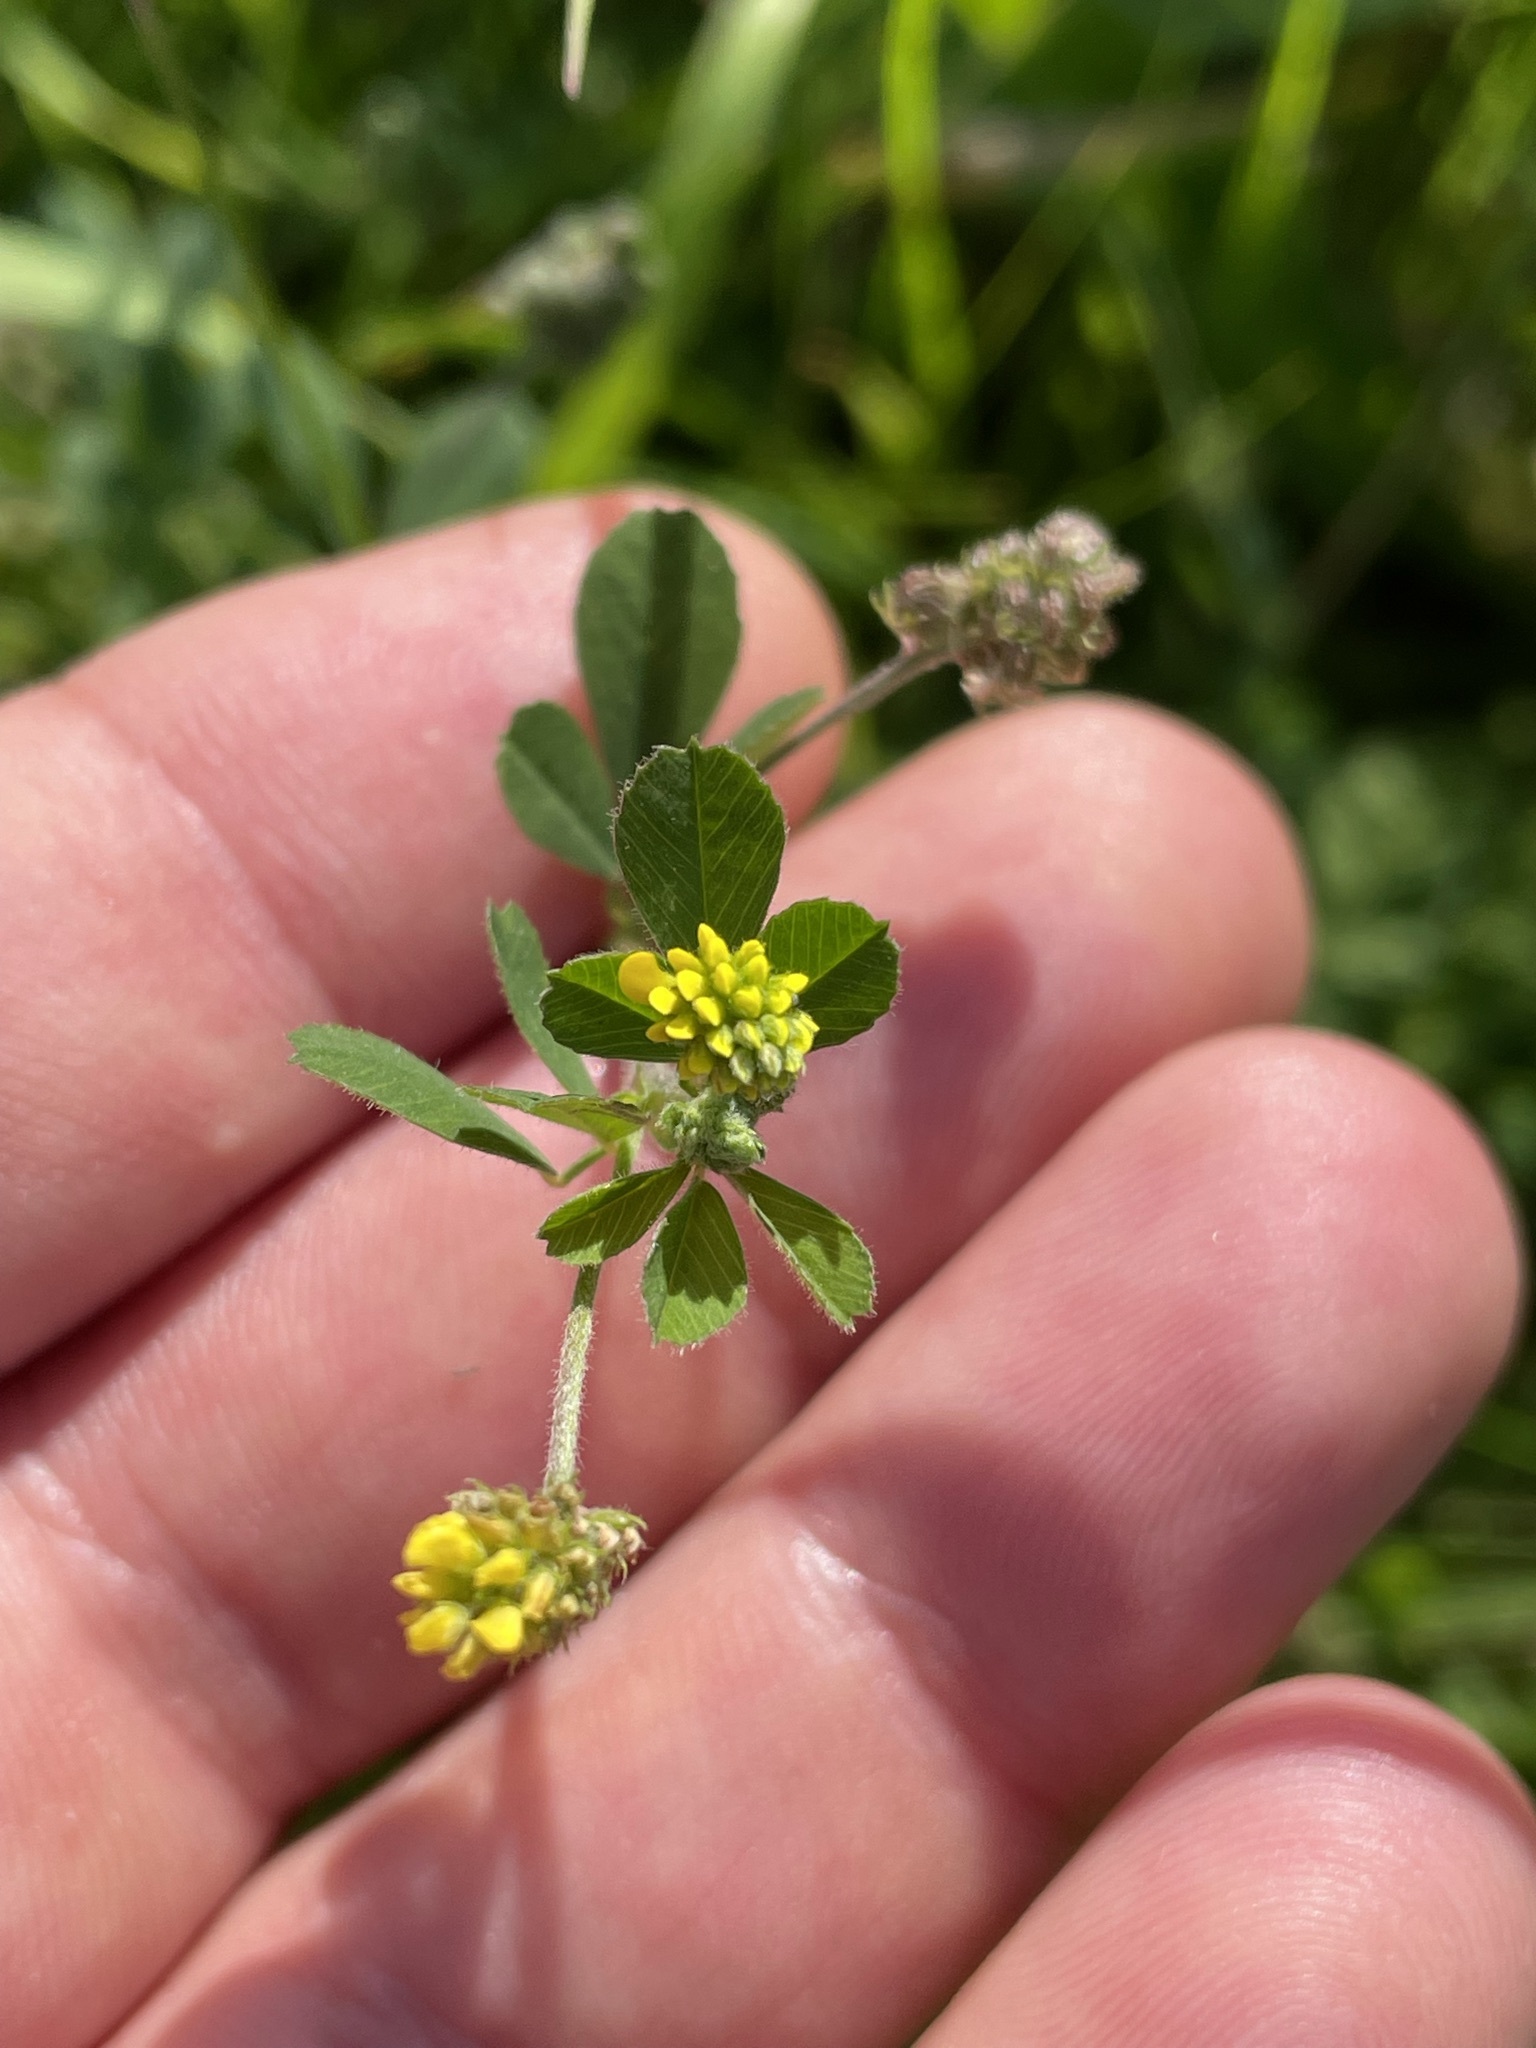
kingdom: Plantae
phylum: Tracheophyta
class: Magnoliopsida
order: Fabales
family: Fabaceae
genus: Medicago
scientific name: Medicago lupulina
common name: Black medick
